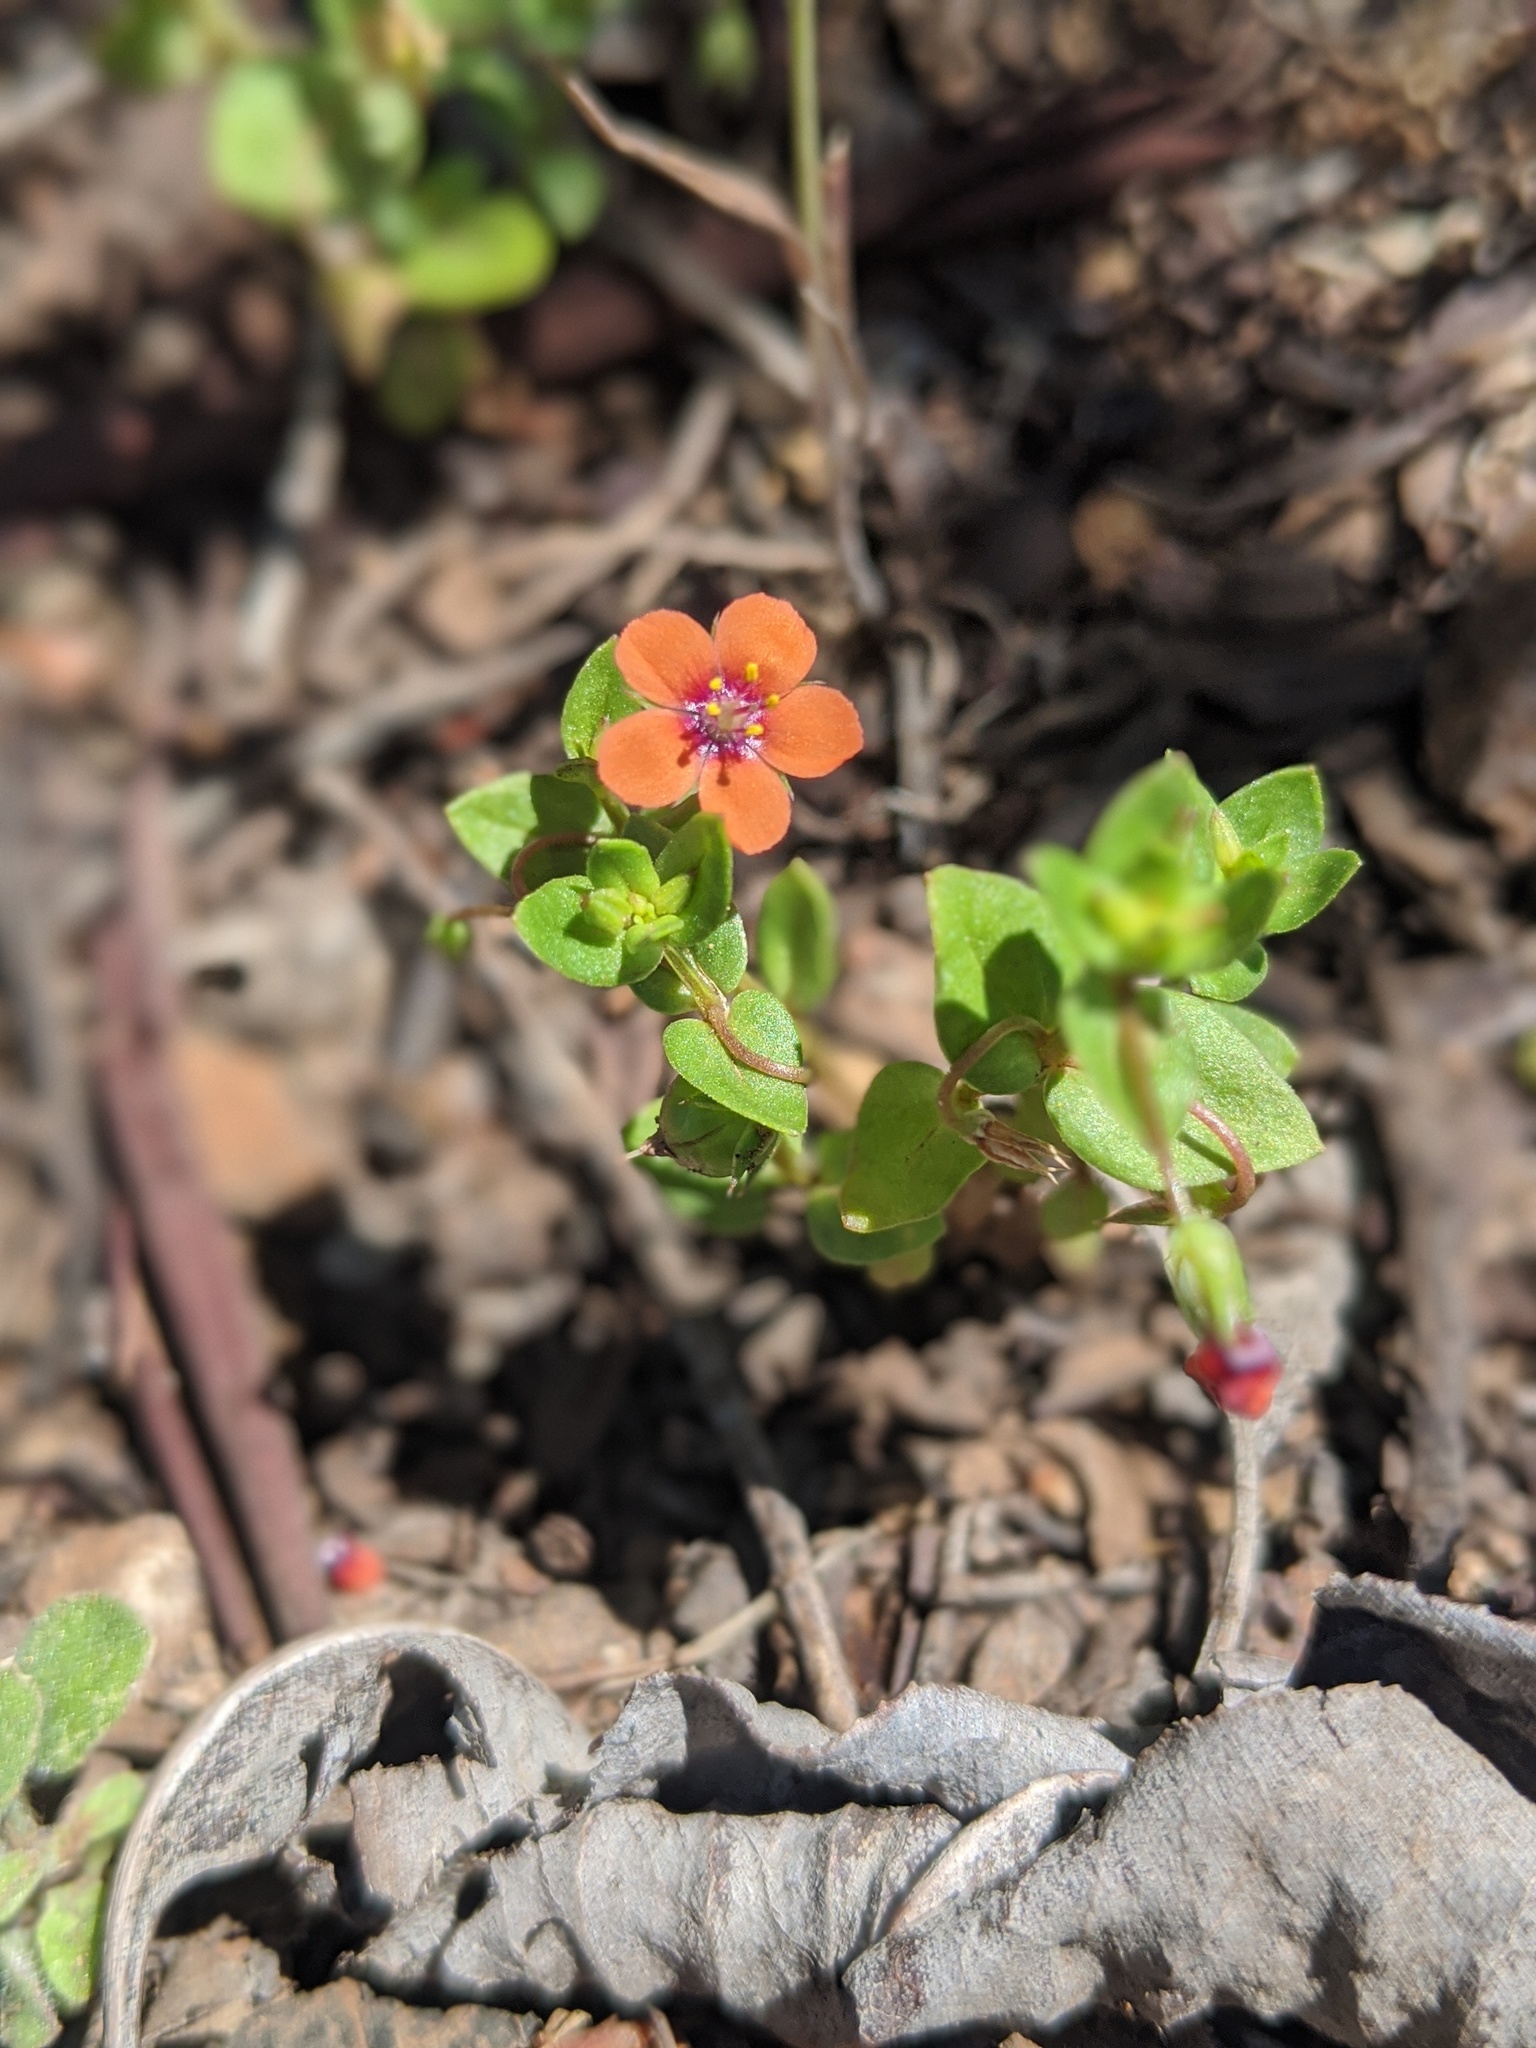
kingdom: Plantae
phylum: Tracheophyta
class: Magnoliopsida
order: Ericales
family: Primulaceae
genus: Lysimachia
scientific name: Lysimachia arvensis
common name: Scarlet pimpernel
